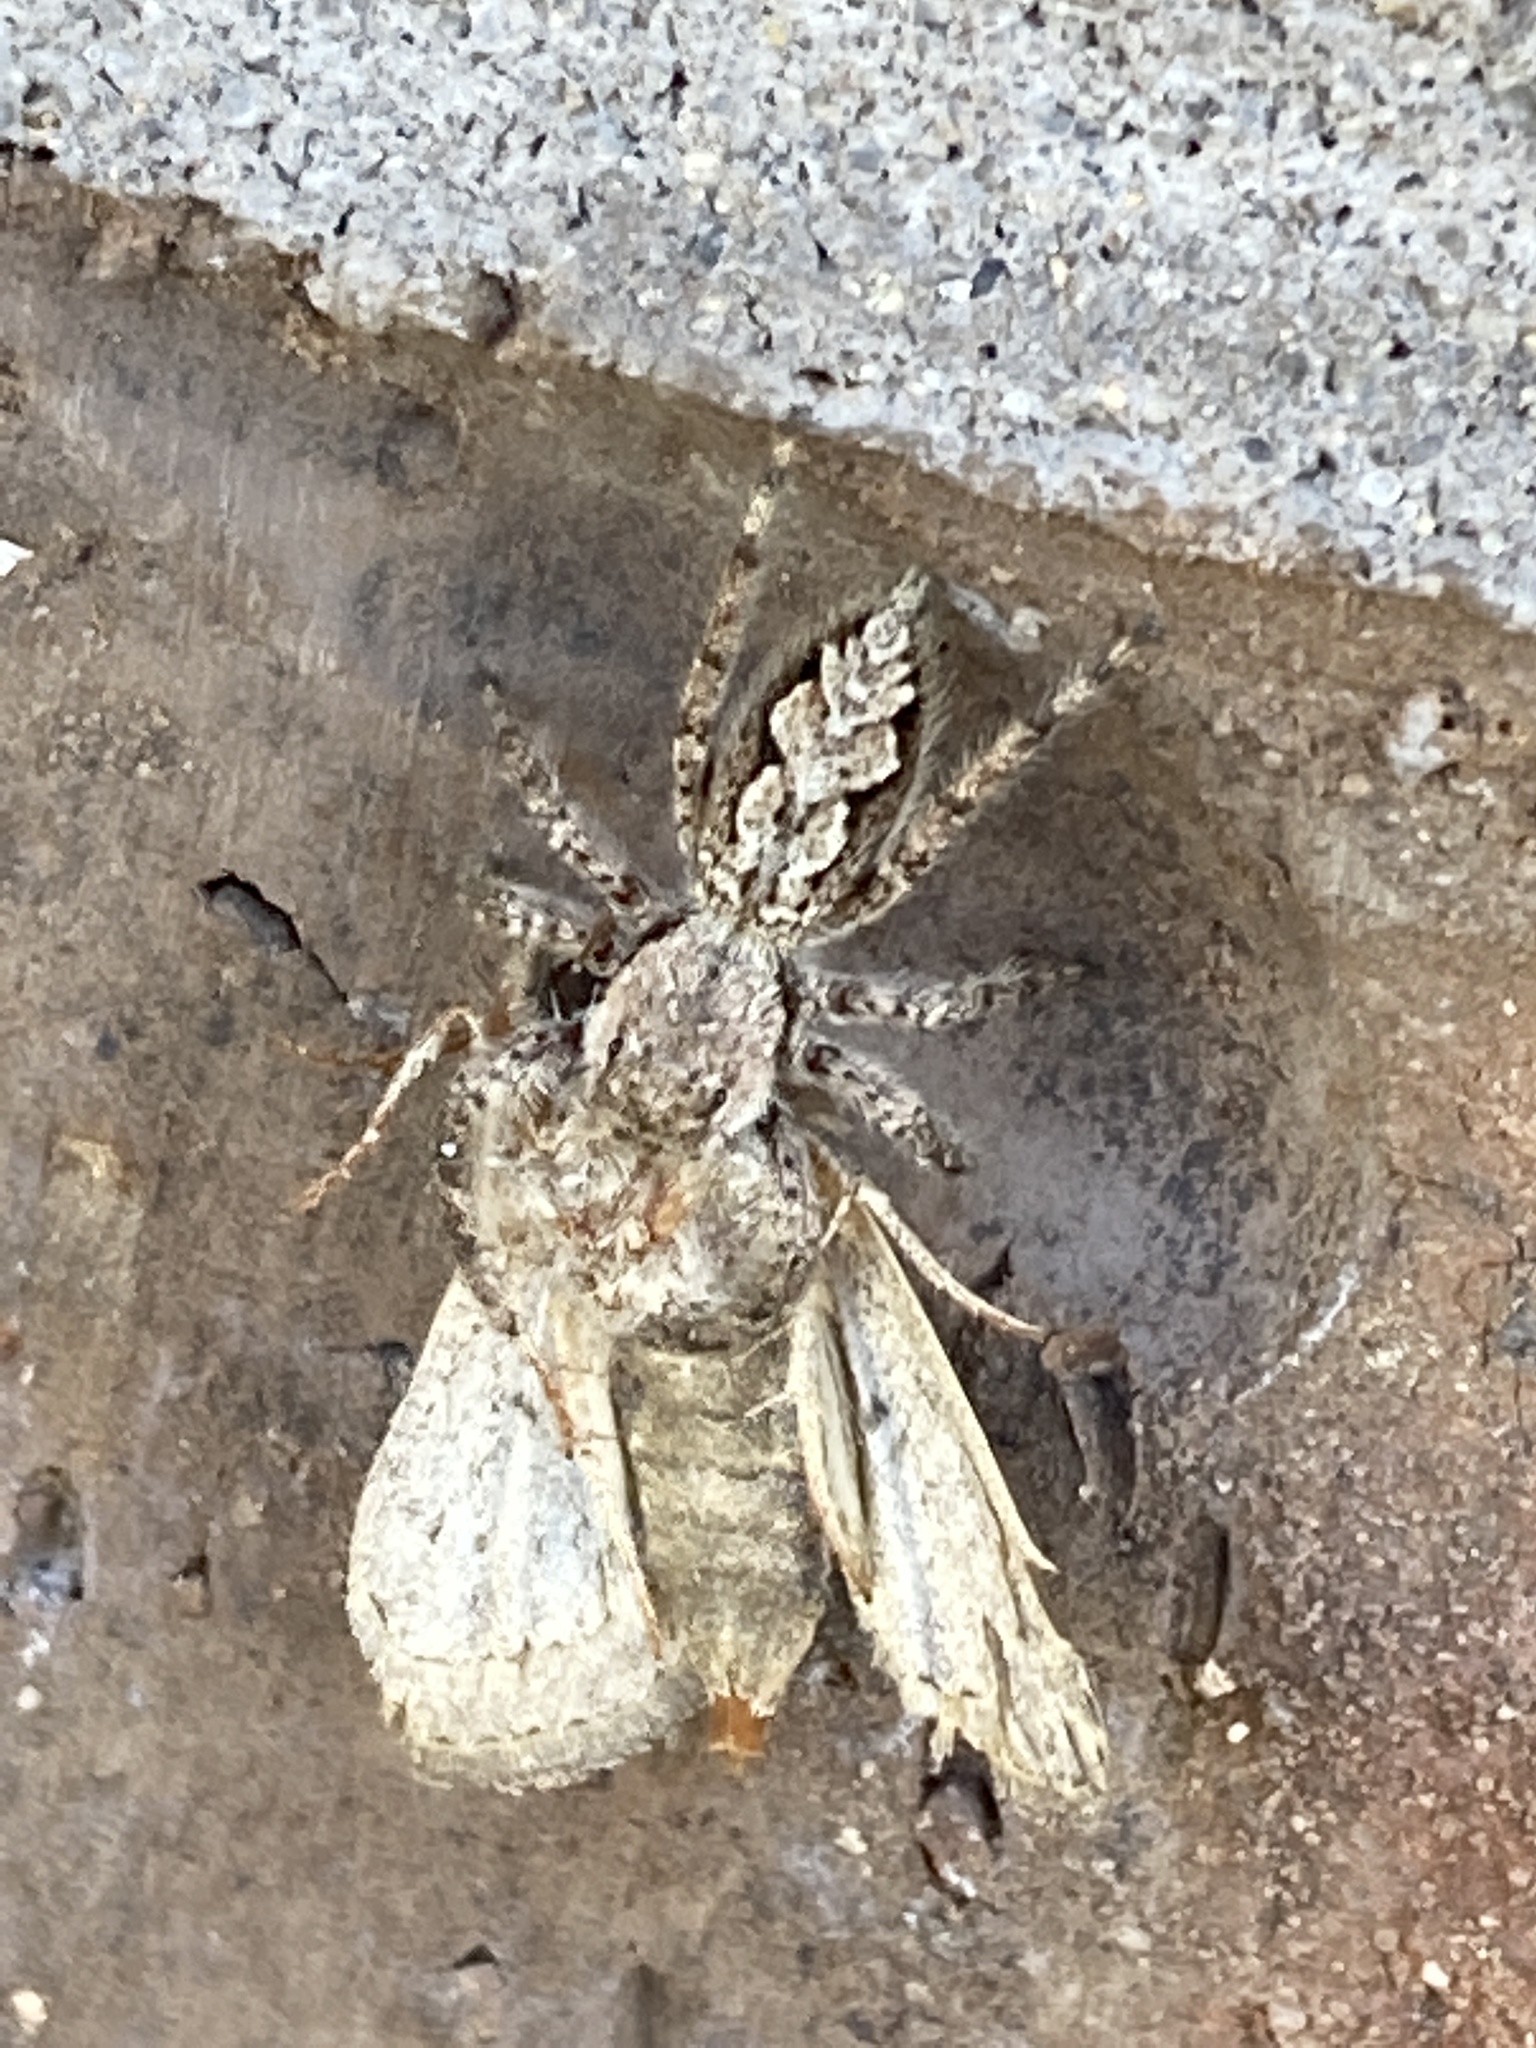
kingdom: Animalia
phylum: Arthropoda
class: Arachnida
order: Araneae
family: Salticidae
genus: Platycryptus
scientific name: Platycryptus undatus
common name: Tan jumping spider
